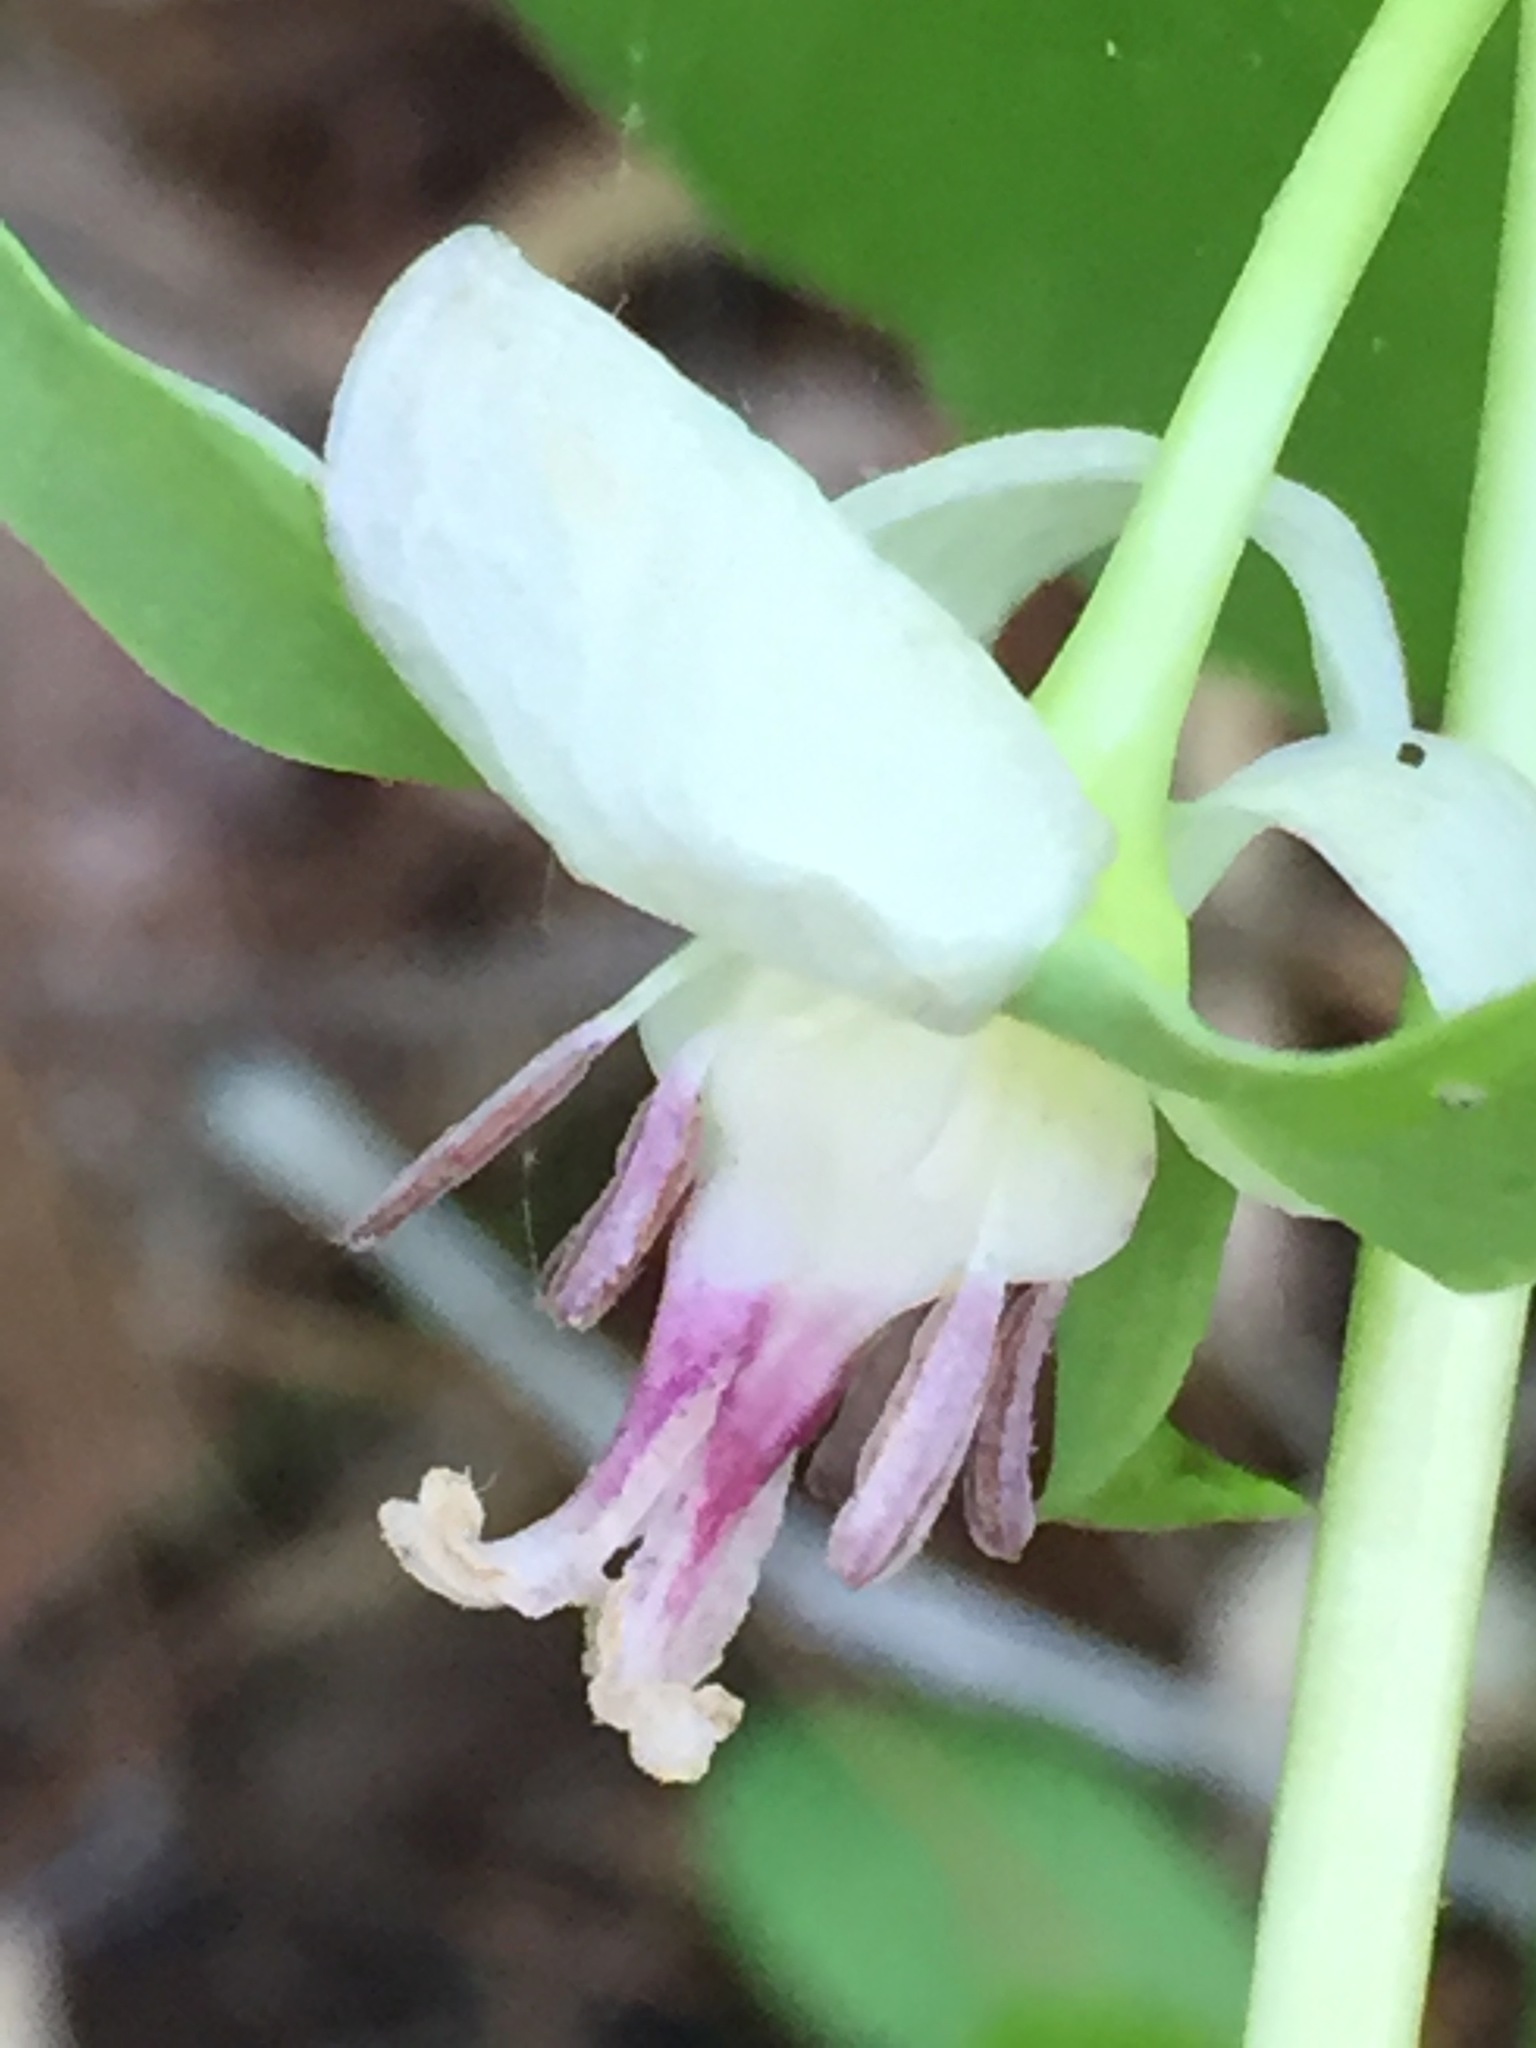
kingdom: Plantae
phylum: Tracheophyta
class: Liliopsida
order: Liliales
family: Melanthiaceae
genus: Trillium
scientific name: Trillium cernuum
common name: Nodding trillium
